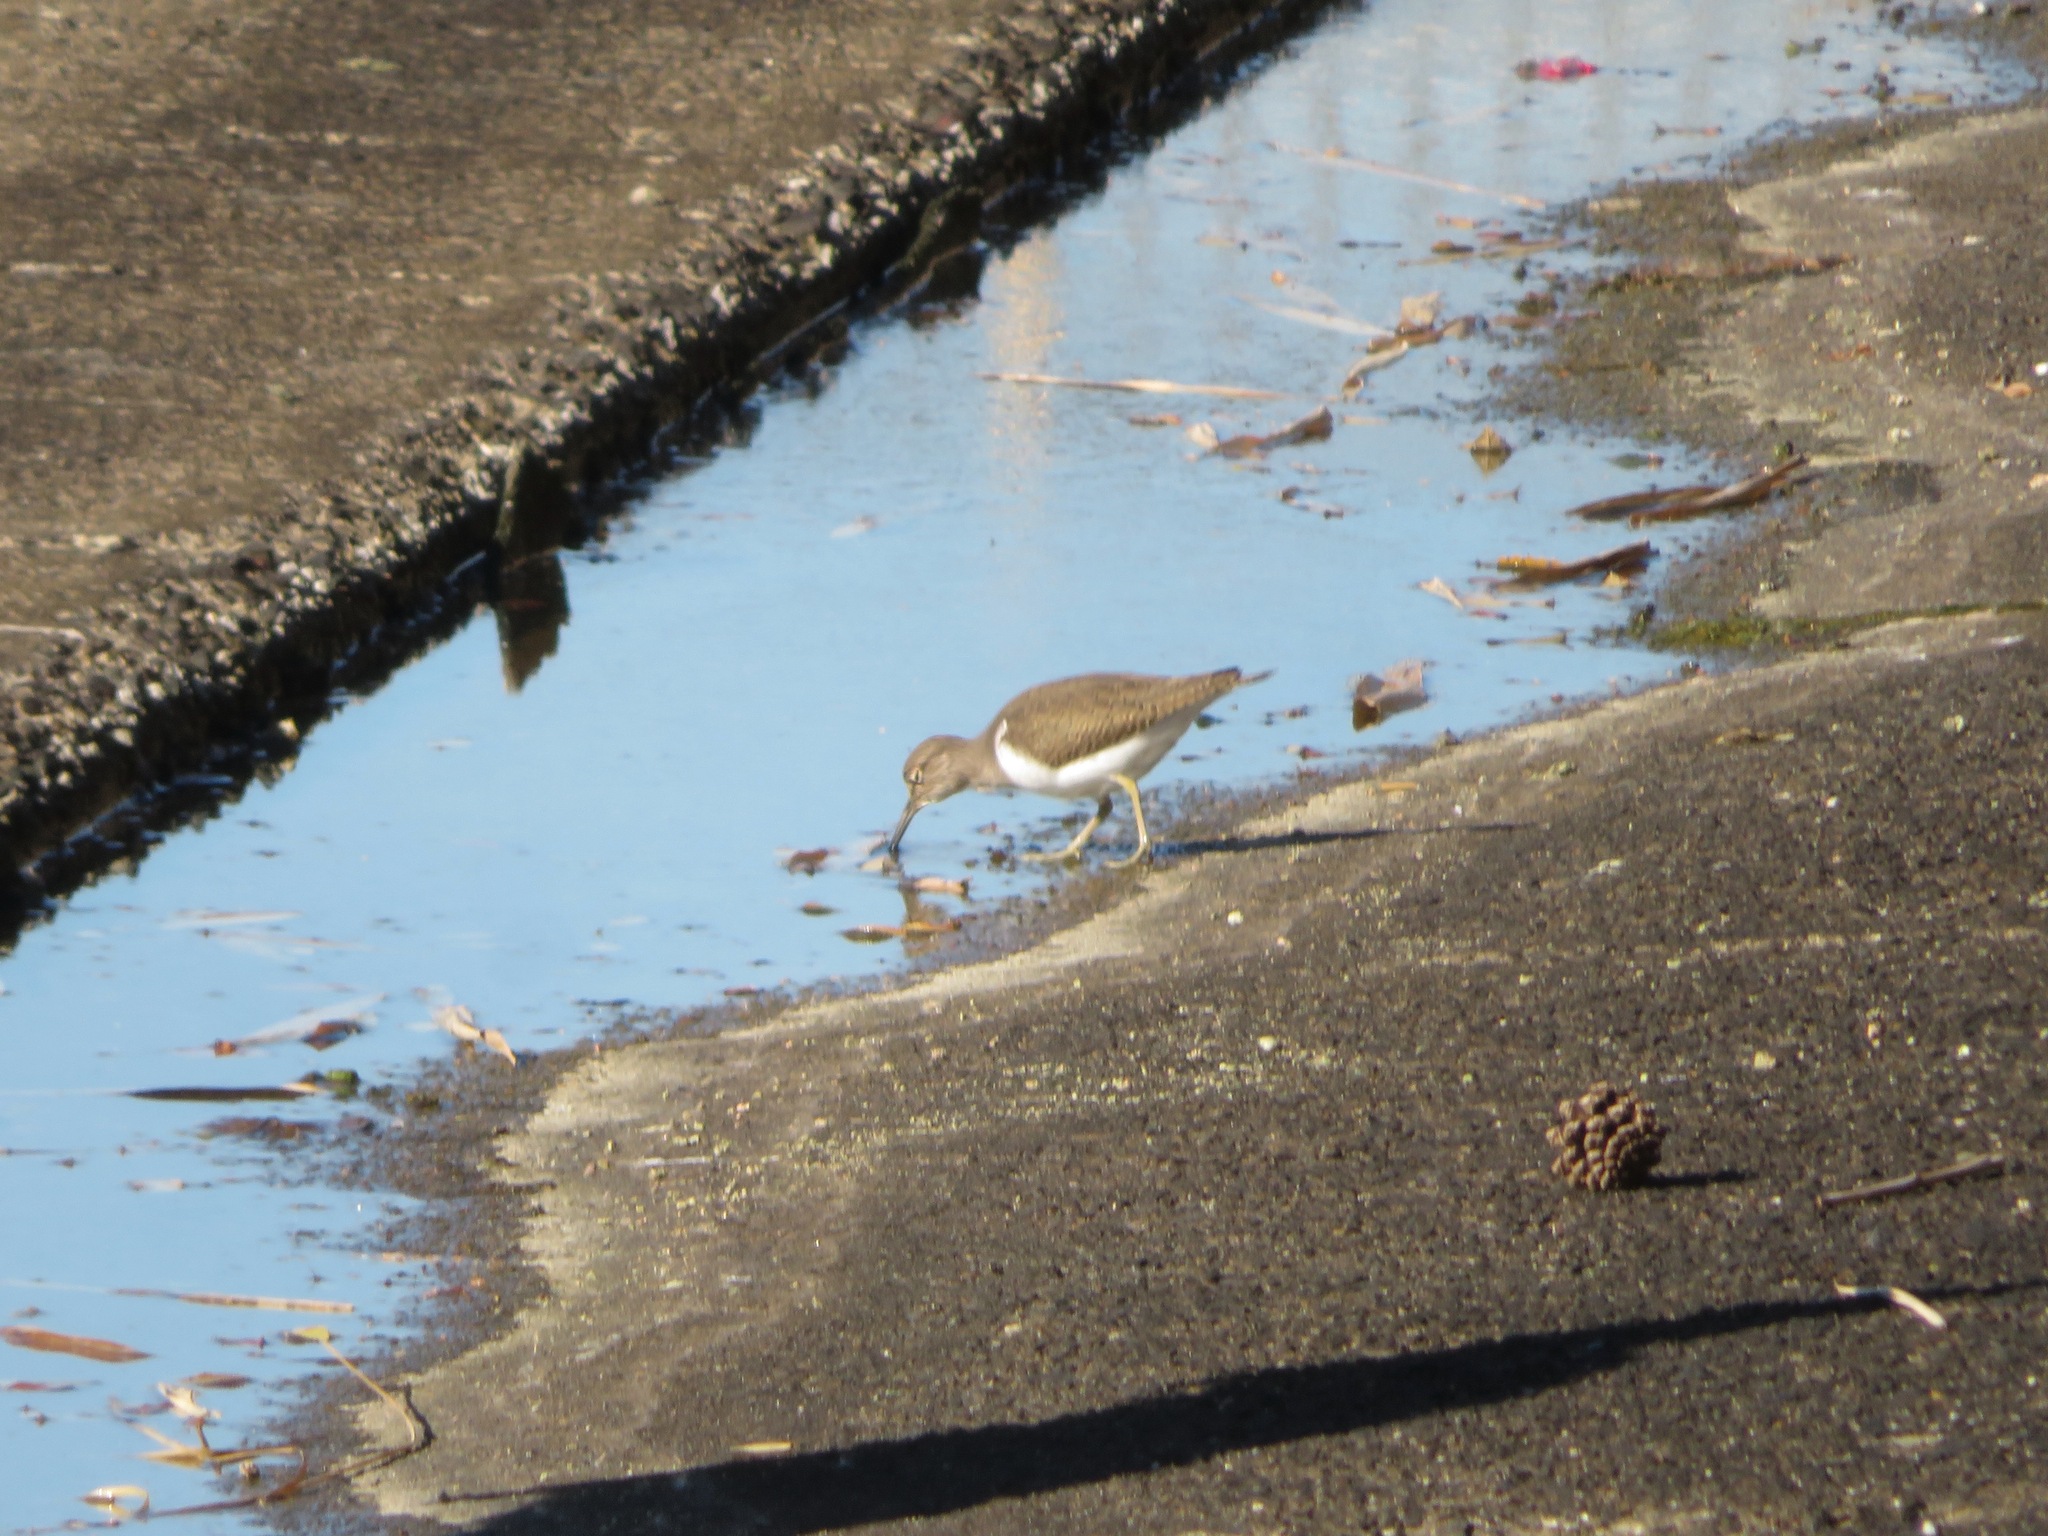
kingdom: Animalia
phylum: Chordata
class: Aves
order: Charadriiformes
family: Scolopacidae
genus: Actitis
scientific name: Actitis hypoleucos
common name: Common sandpiper
